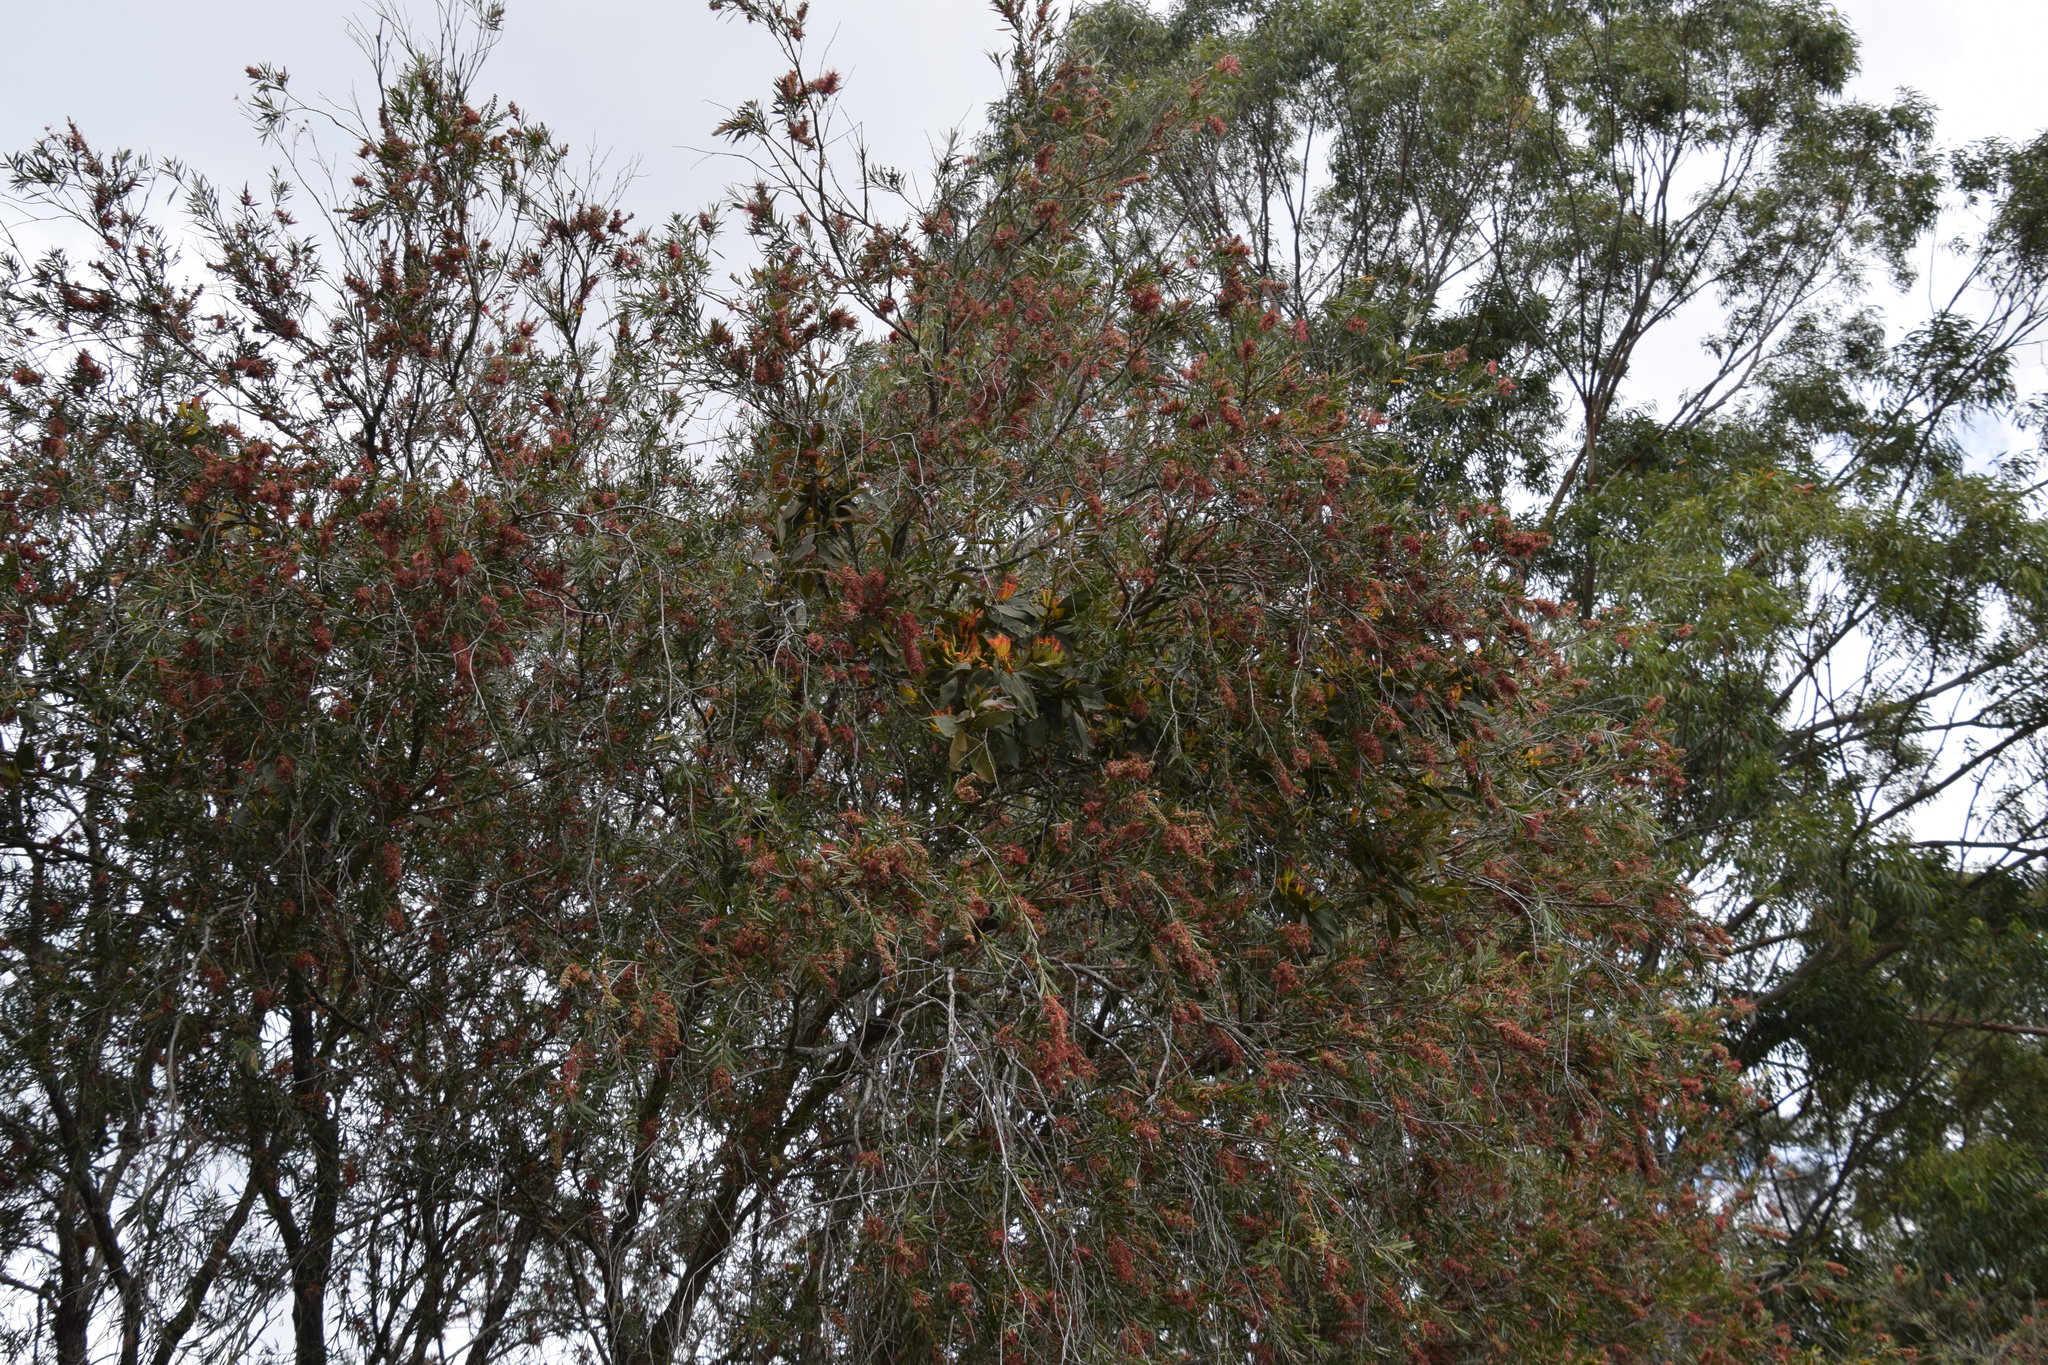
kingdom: Plantae
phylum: Tracheophyta
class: Magnoliopsida
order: Santalales
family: Loranthaceae
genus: Dendrophthoe
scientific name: Dendrophthoe glabrescens
